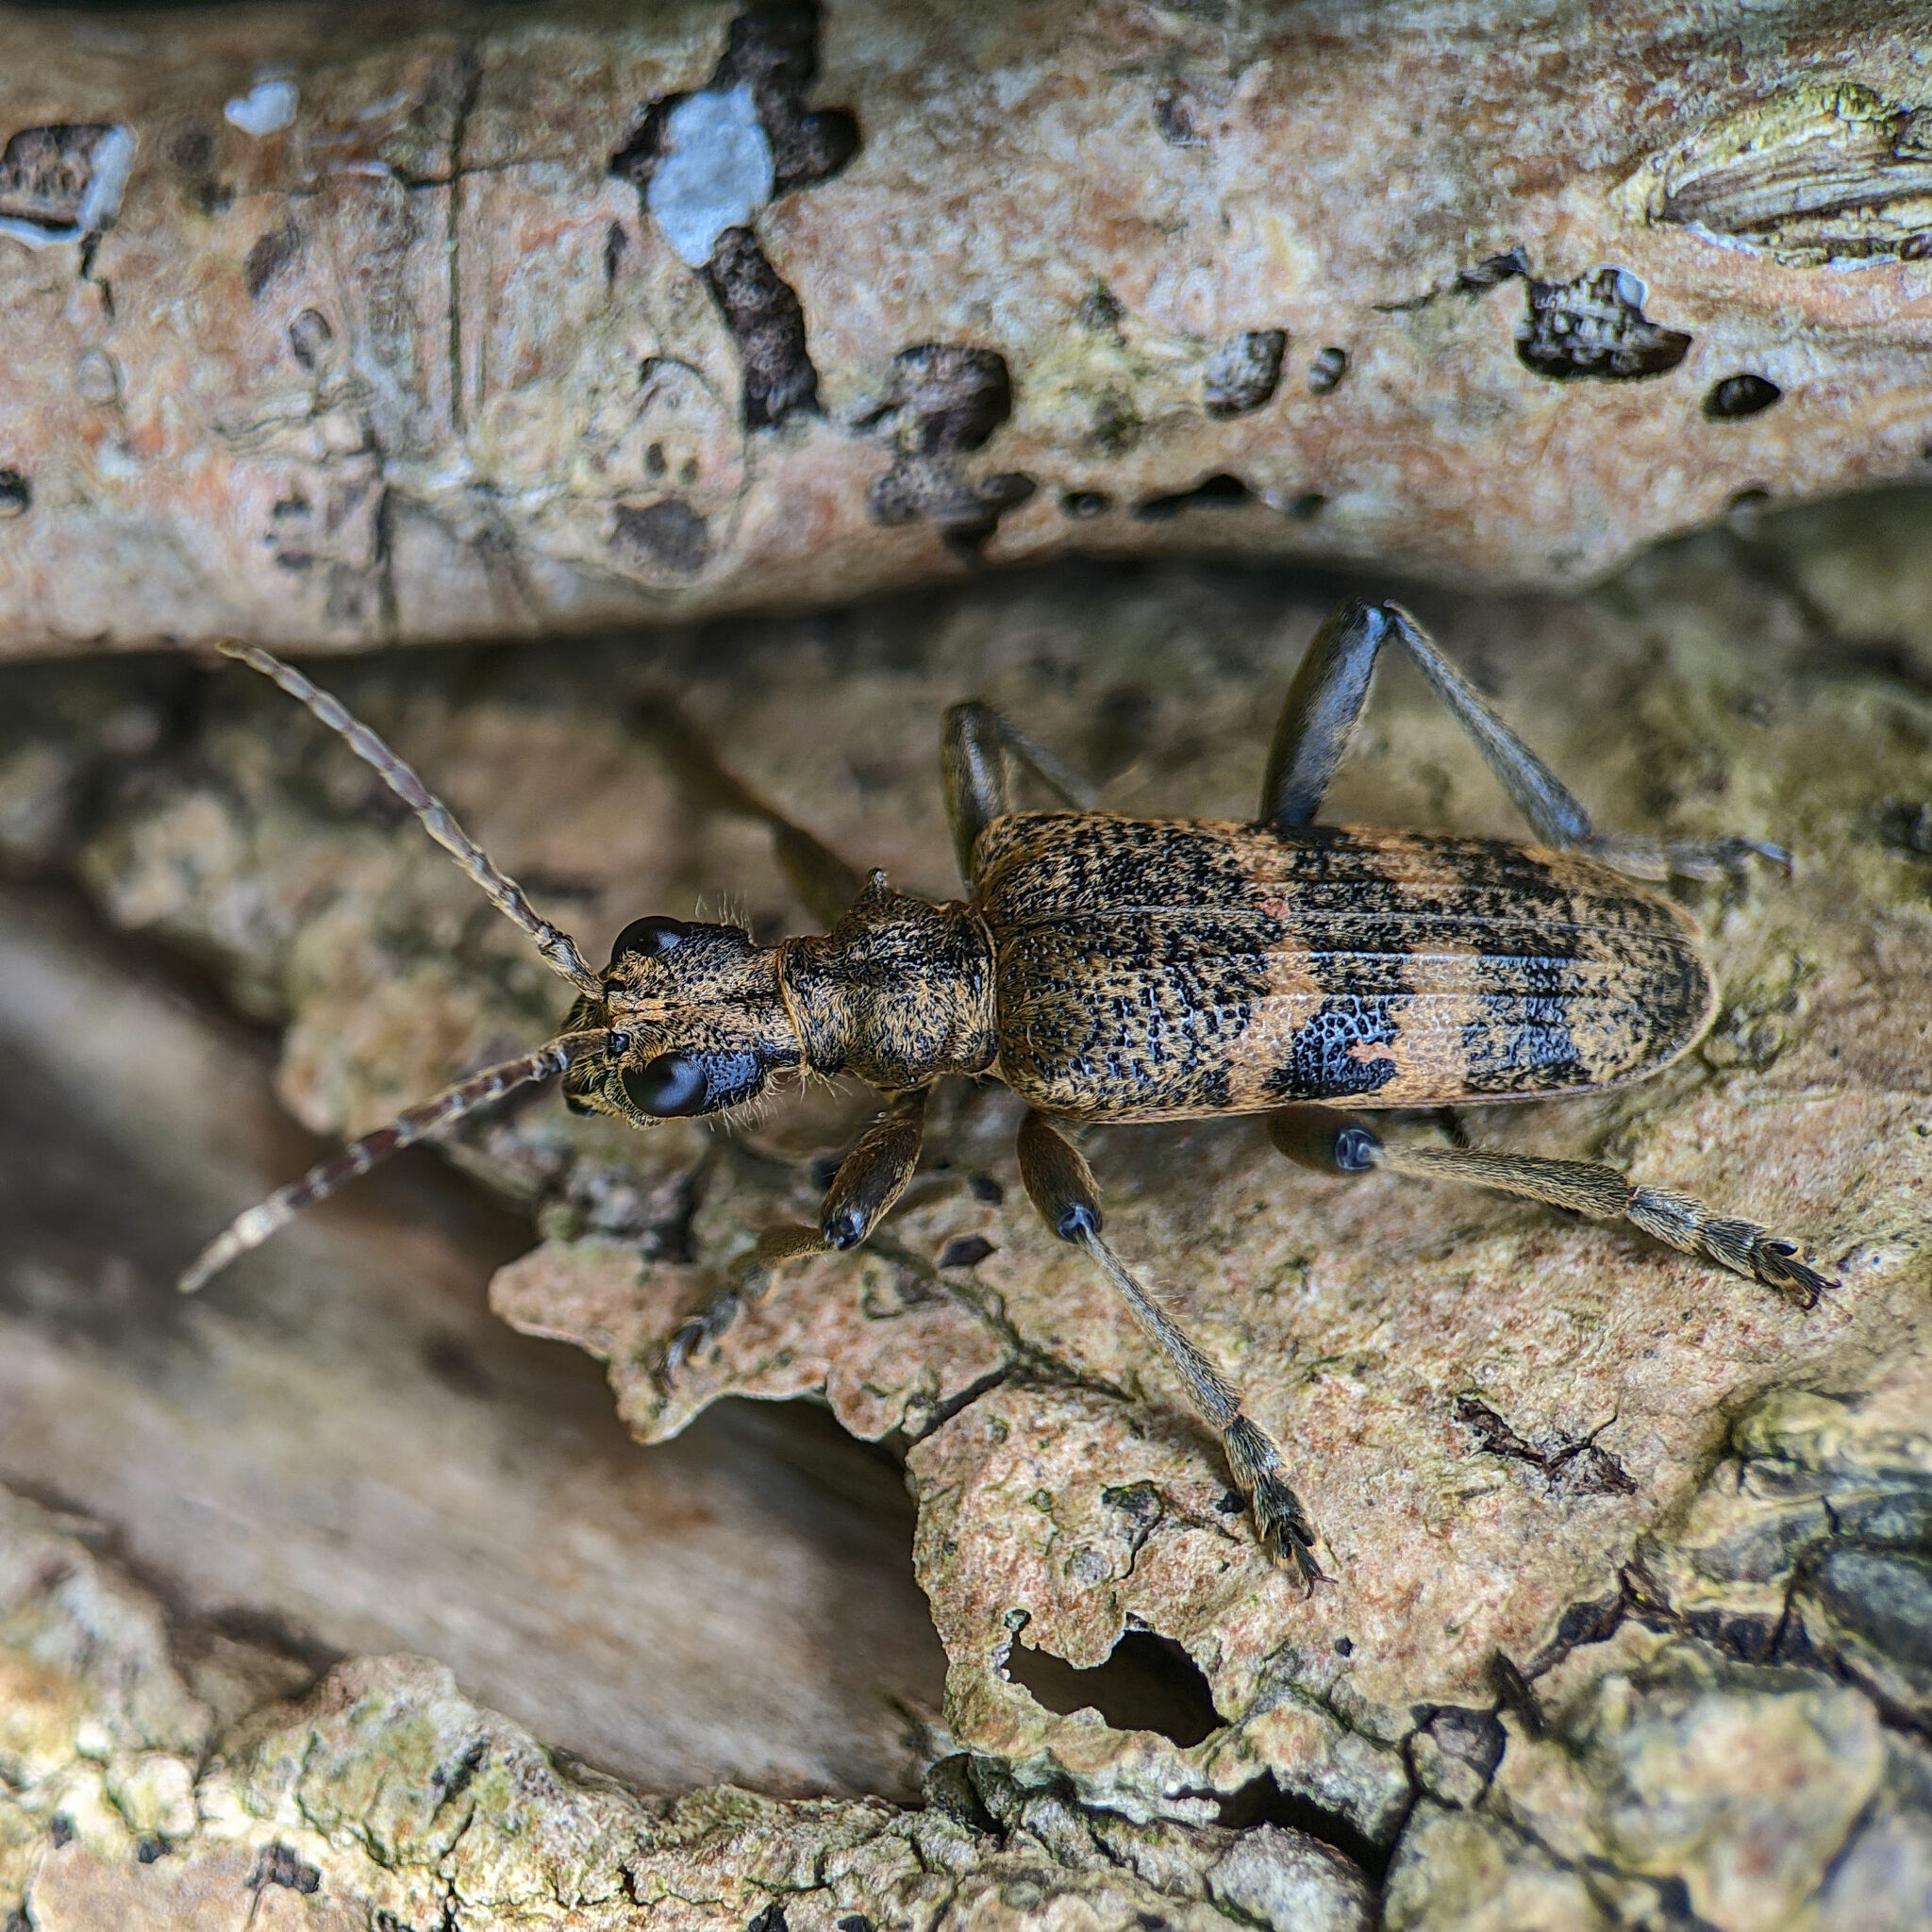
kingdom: Animalia
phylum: Arthropoda
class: Insecta
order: Coleoptera
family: Cerambycidae
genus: Rhagium
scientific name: Rhagium mordax
